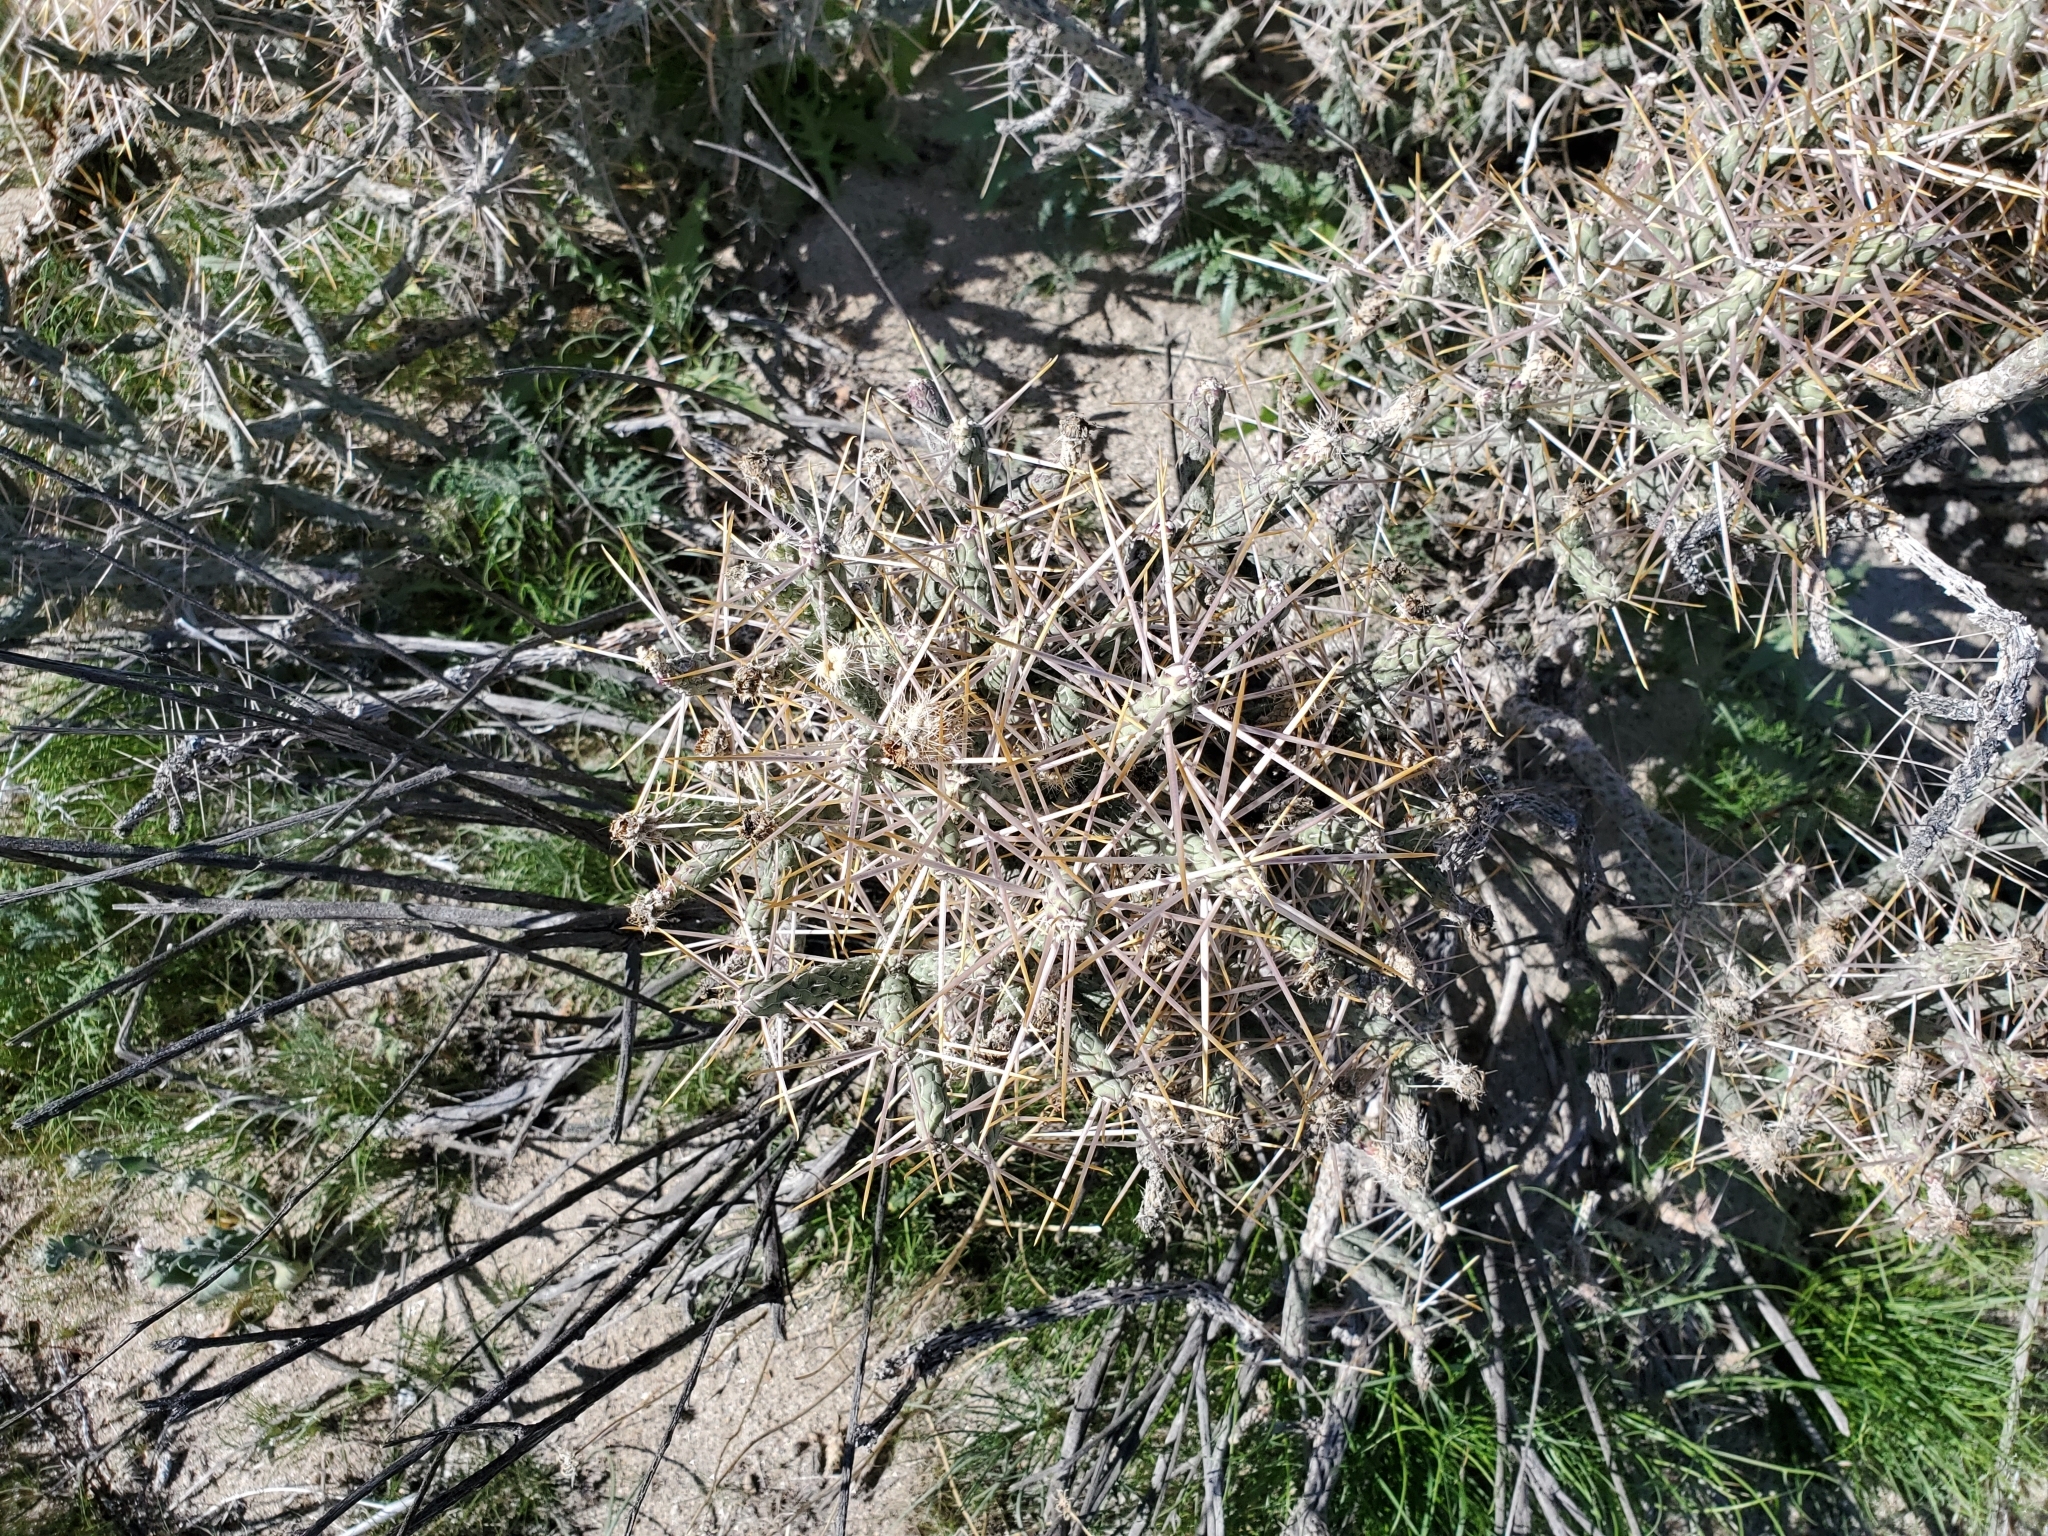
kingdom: Plantae
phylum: Tracheophyta
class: Magnoliopsida
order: Caryophyllales
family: Cactaceae
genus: Cylindropuntia
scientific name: Cylindropuntia ramosissima
